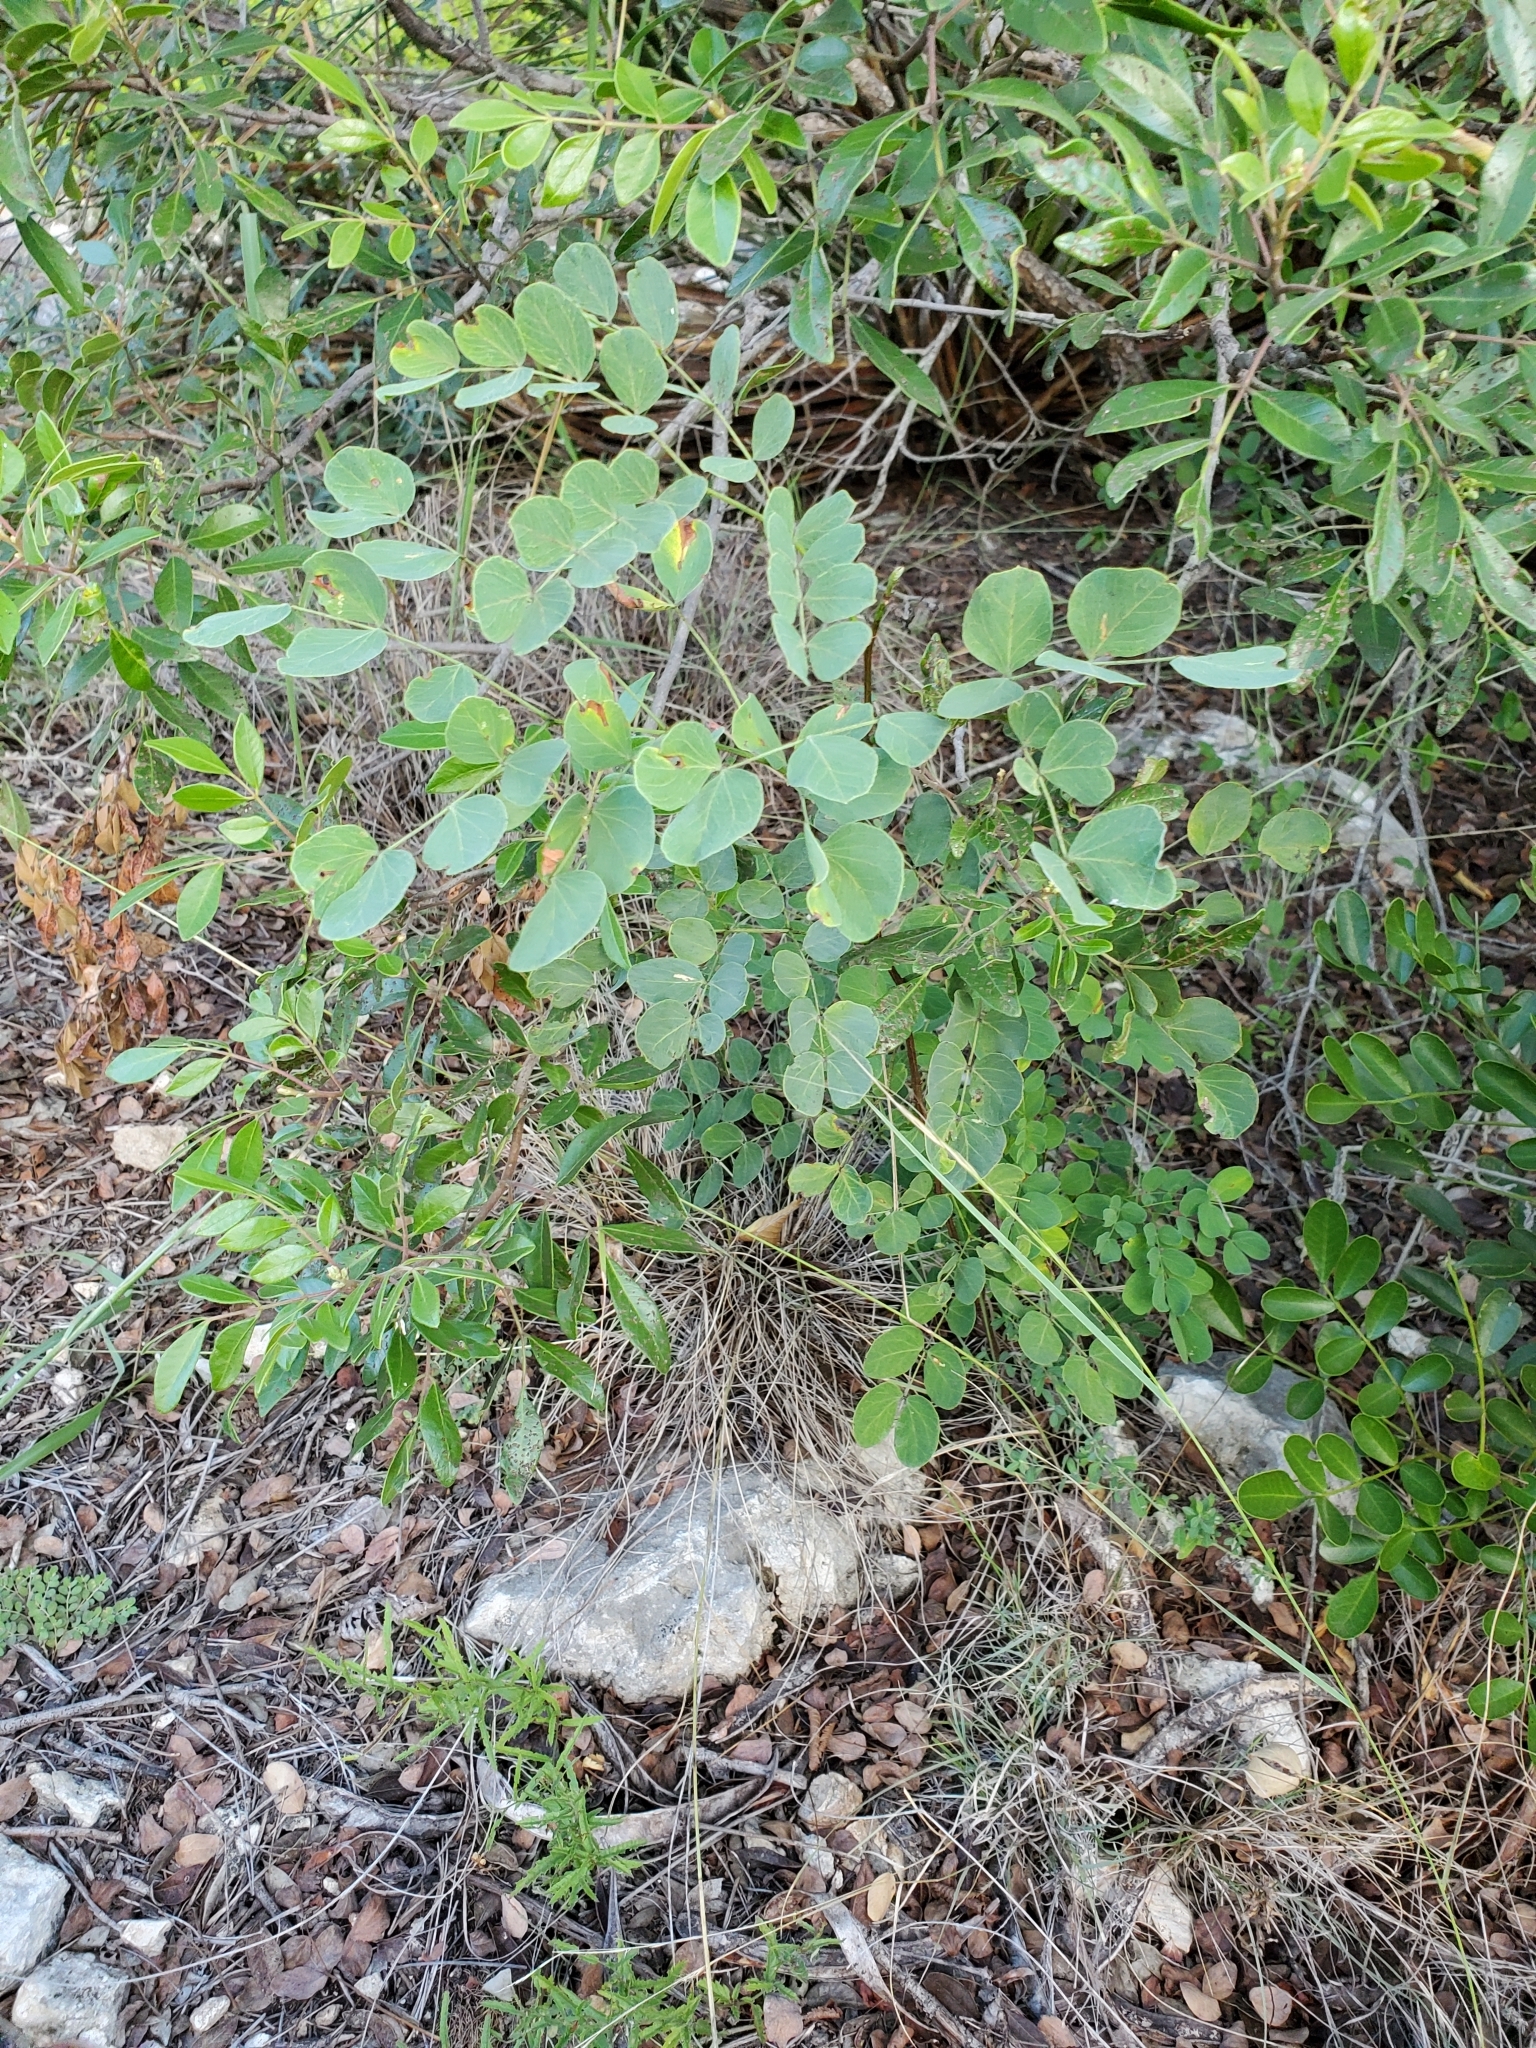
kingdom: Plantae
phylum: Tracheophyta
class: Magnoliopsida
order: Fabales
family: Fabaceae
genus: Leucaena
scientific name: Leucaena retusa
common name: Littleleaf leadtree
